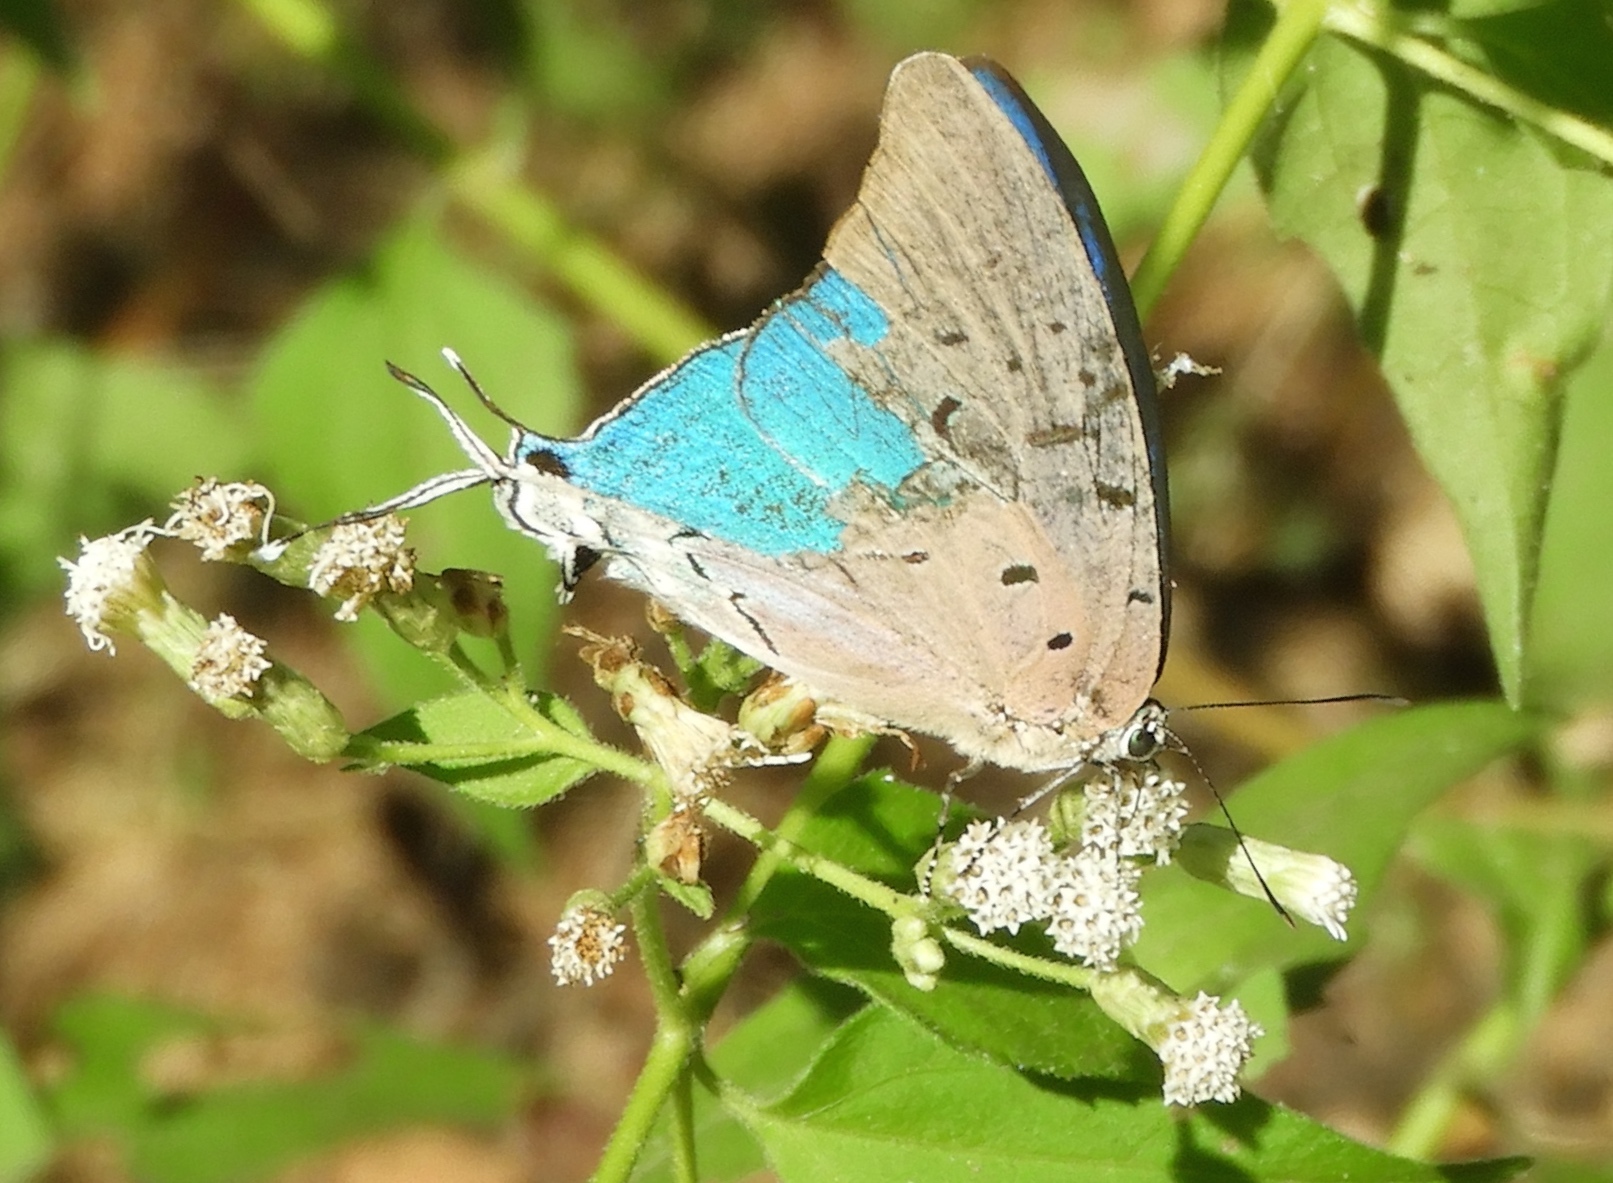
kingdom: Animalia
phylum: Arthropoda
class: Insecta
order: Lepidoptera
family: Lycaenidae
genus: Pseudolycaena
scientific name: Pseudolycaena damo
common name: Sky-blue hairstreak
